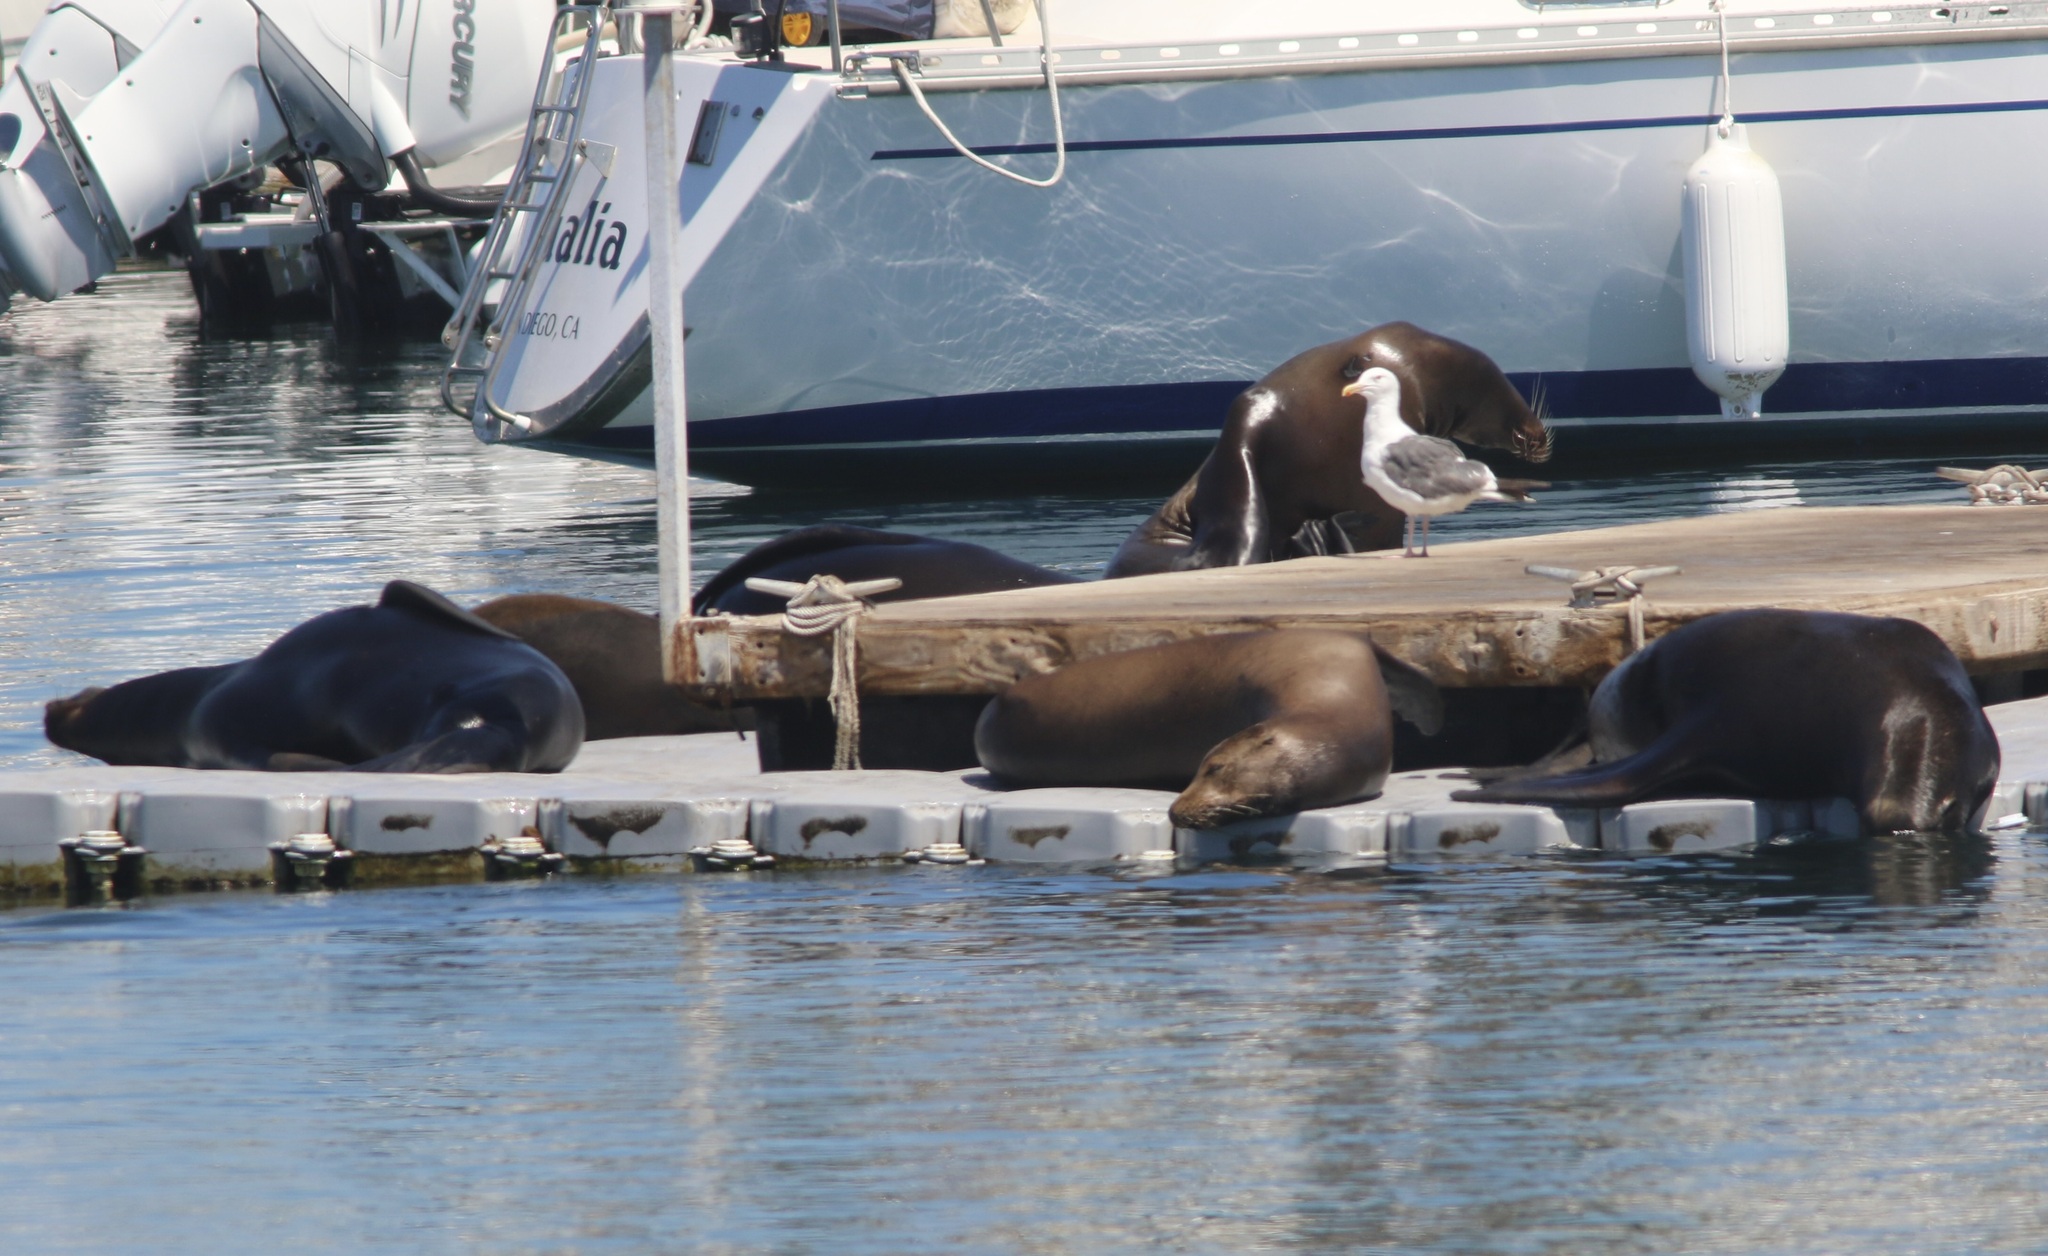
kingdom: Animalia
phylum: Chordata
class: Mammalia
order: Carnivora
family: Otariidae
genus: Zalophus
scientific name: Zalophus californianus
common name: California sea lion
